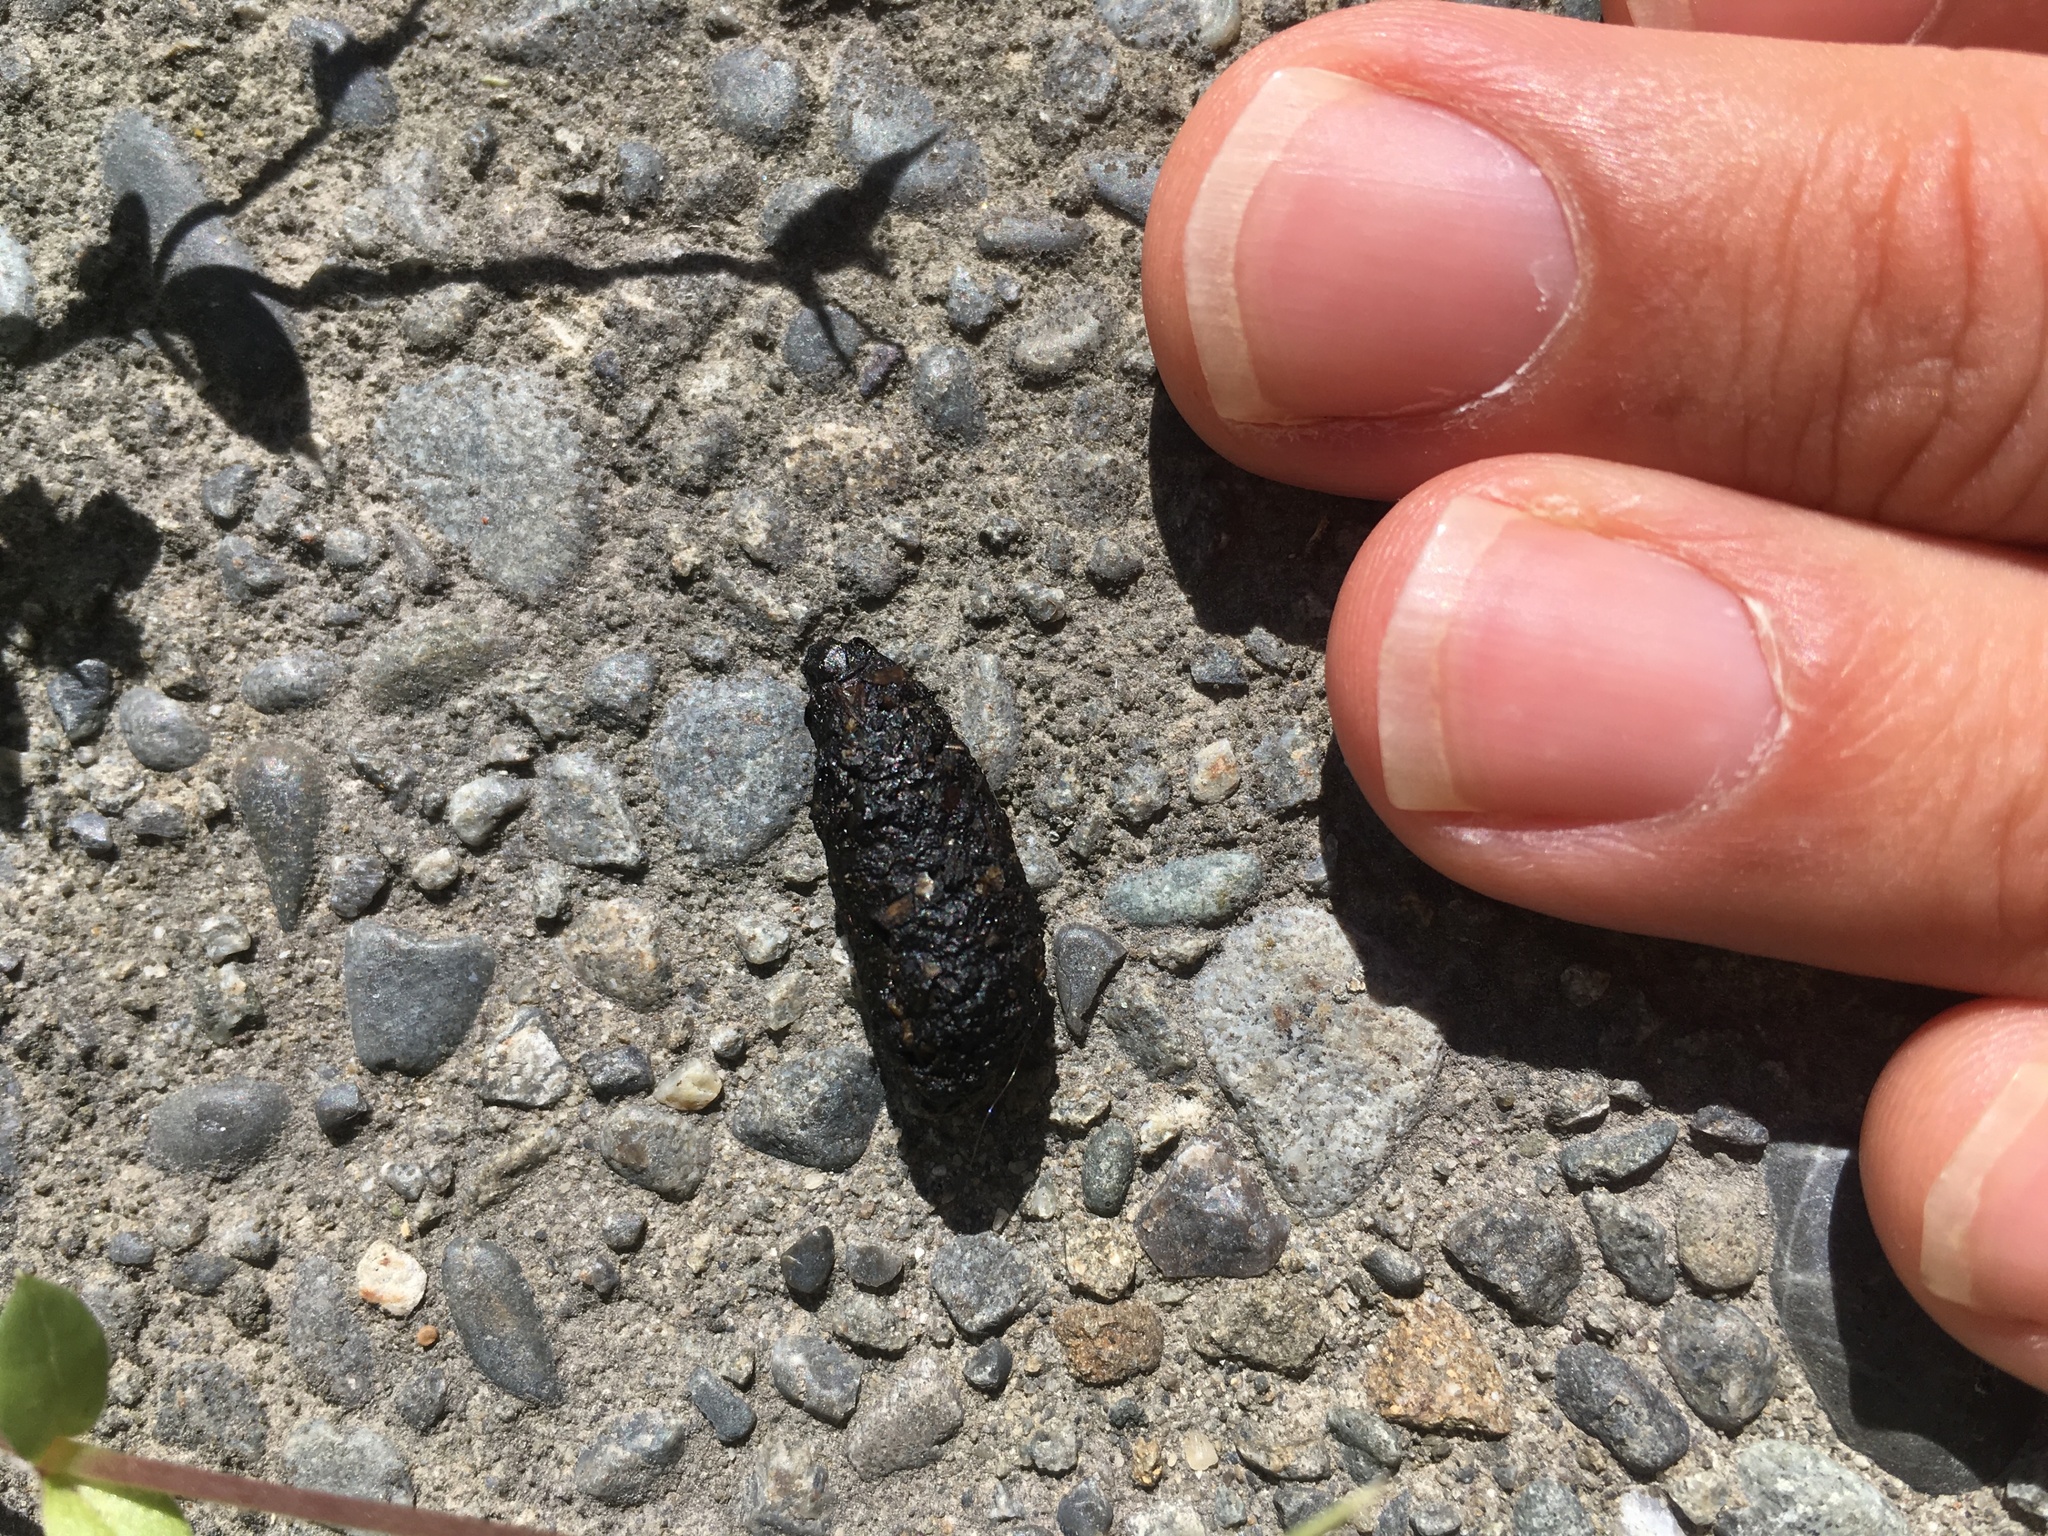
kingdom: Animalia
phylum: Chordata
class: Mammalia
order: Erinaceomorpha
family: Erinaceidae
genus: Erinaceus
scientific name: Erinaceus europaeus
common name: West european hedgehog
